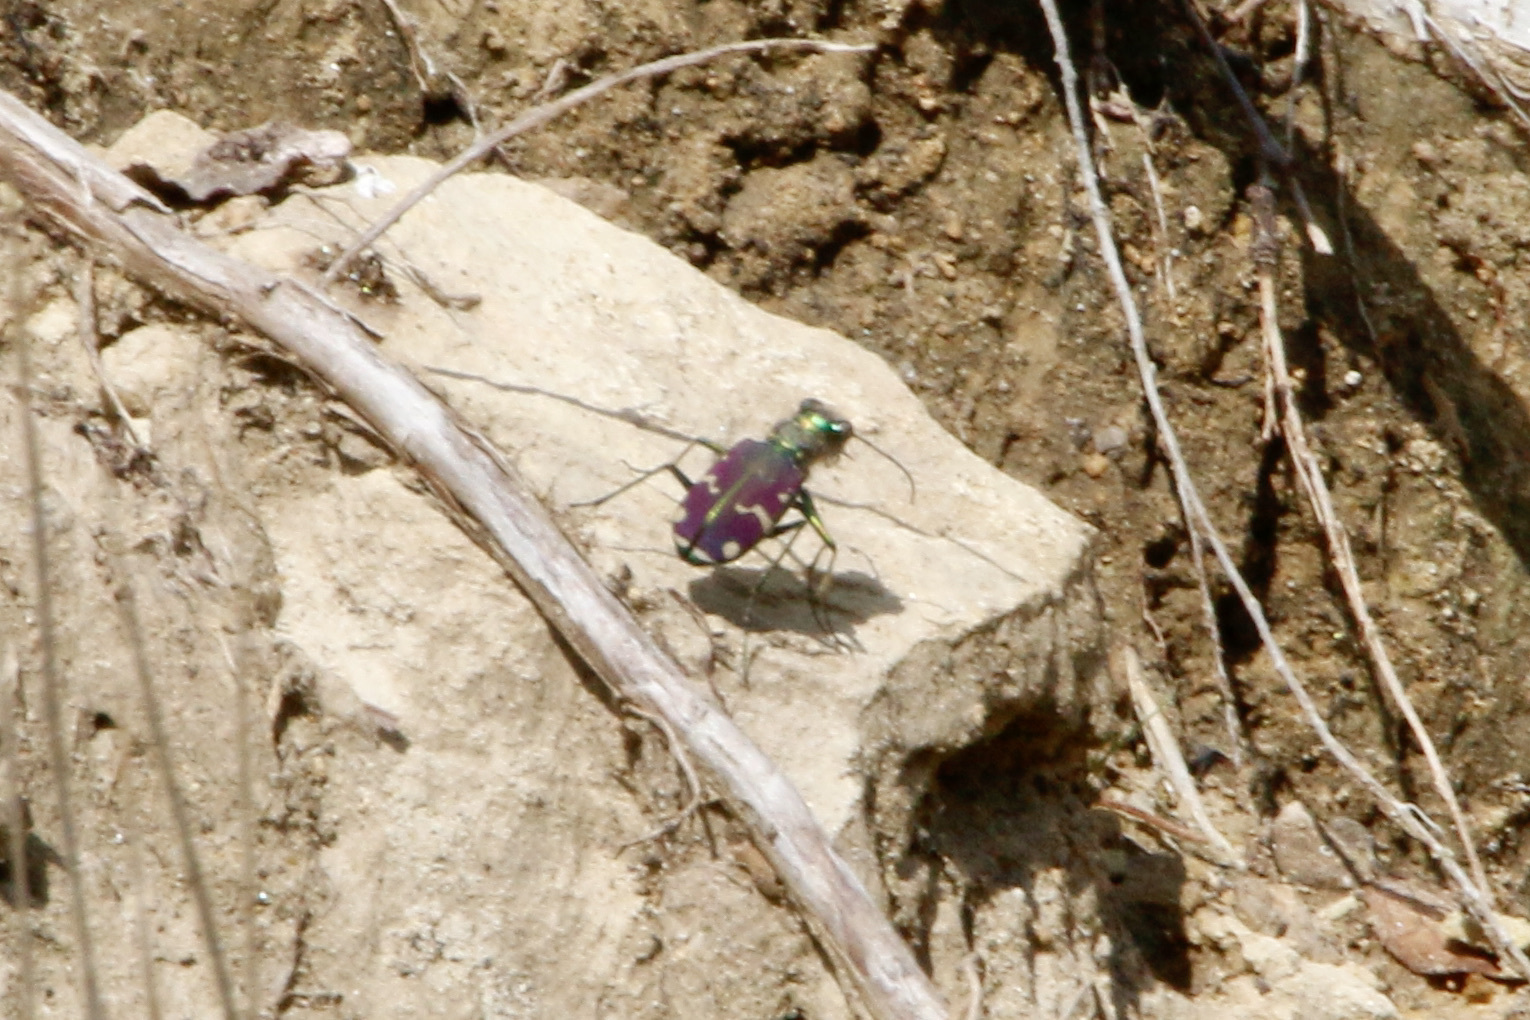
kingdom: Animalia
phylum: Arthropoda
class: Insecta
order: Coleoptera
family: Carabidae
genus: Cicindela
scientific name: Cicindela limbalis
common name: Common claybank tiger beetle
